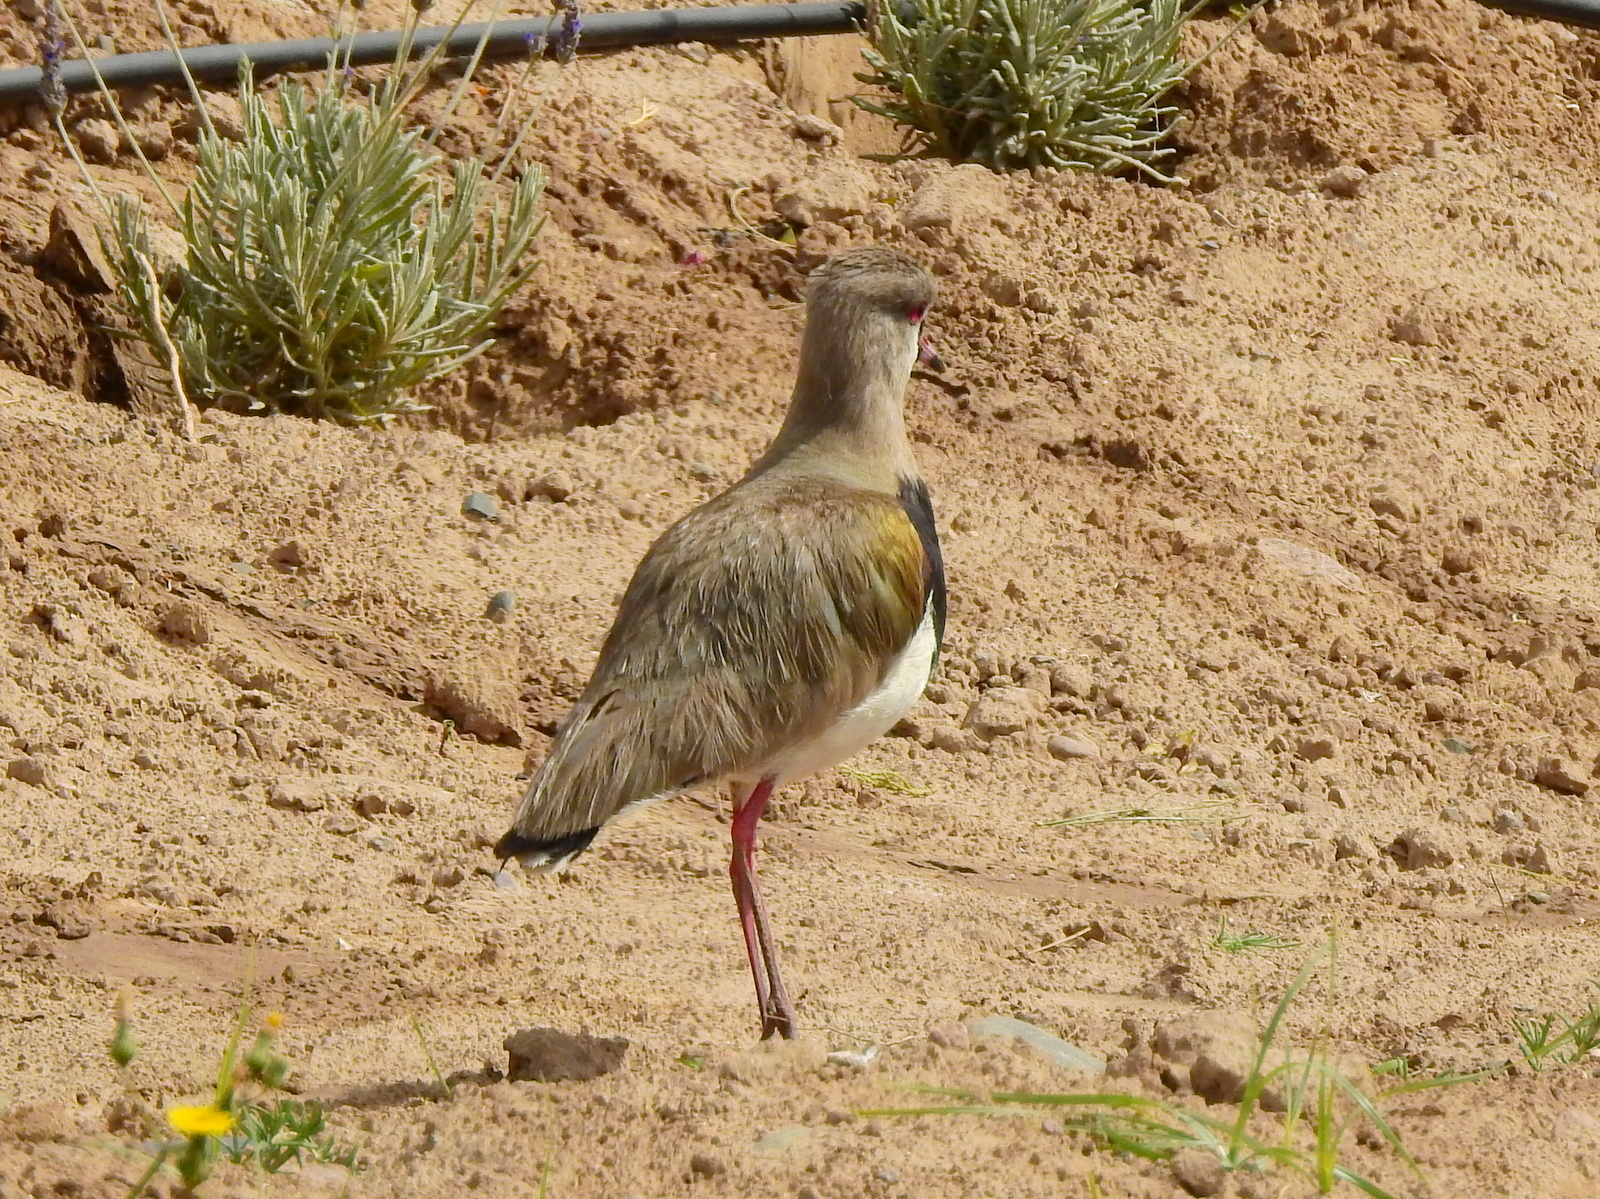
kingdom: Animalia
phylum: Chordata
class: Aves
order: Charadriiformes
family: Charadriidae
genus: Vanellus
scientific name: Vanellus chilensis
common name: Southern lapwing
